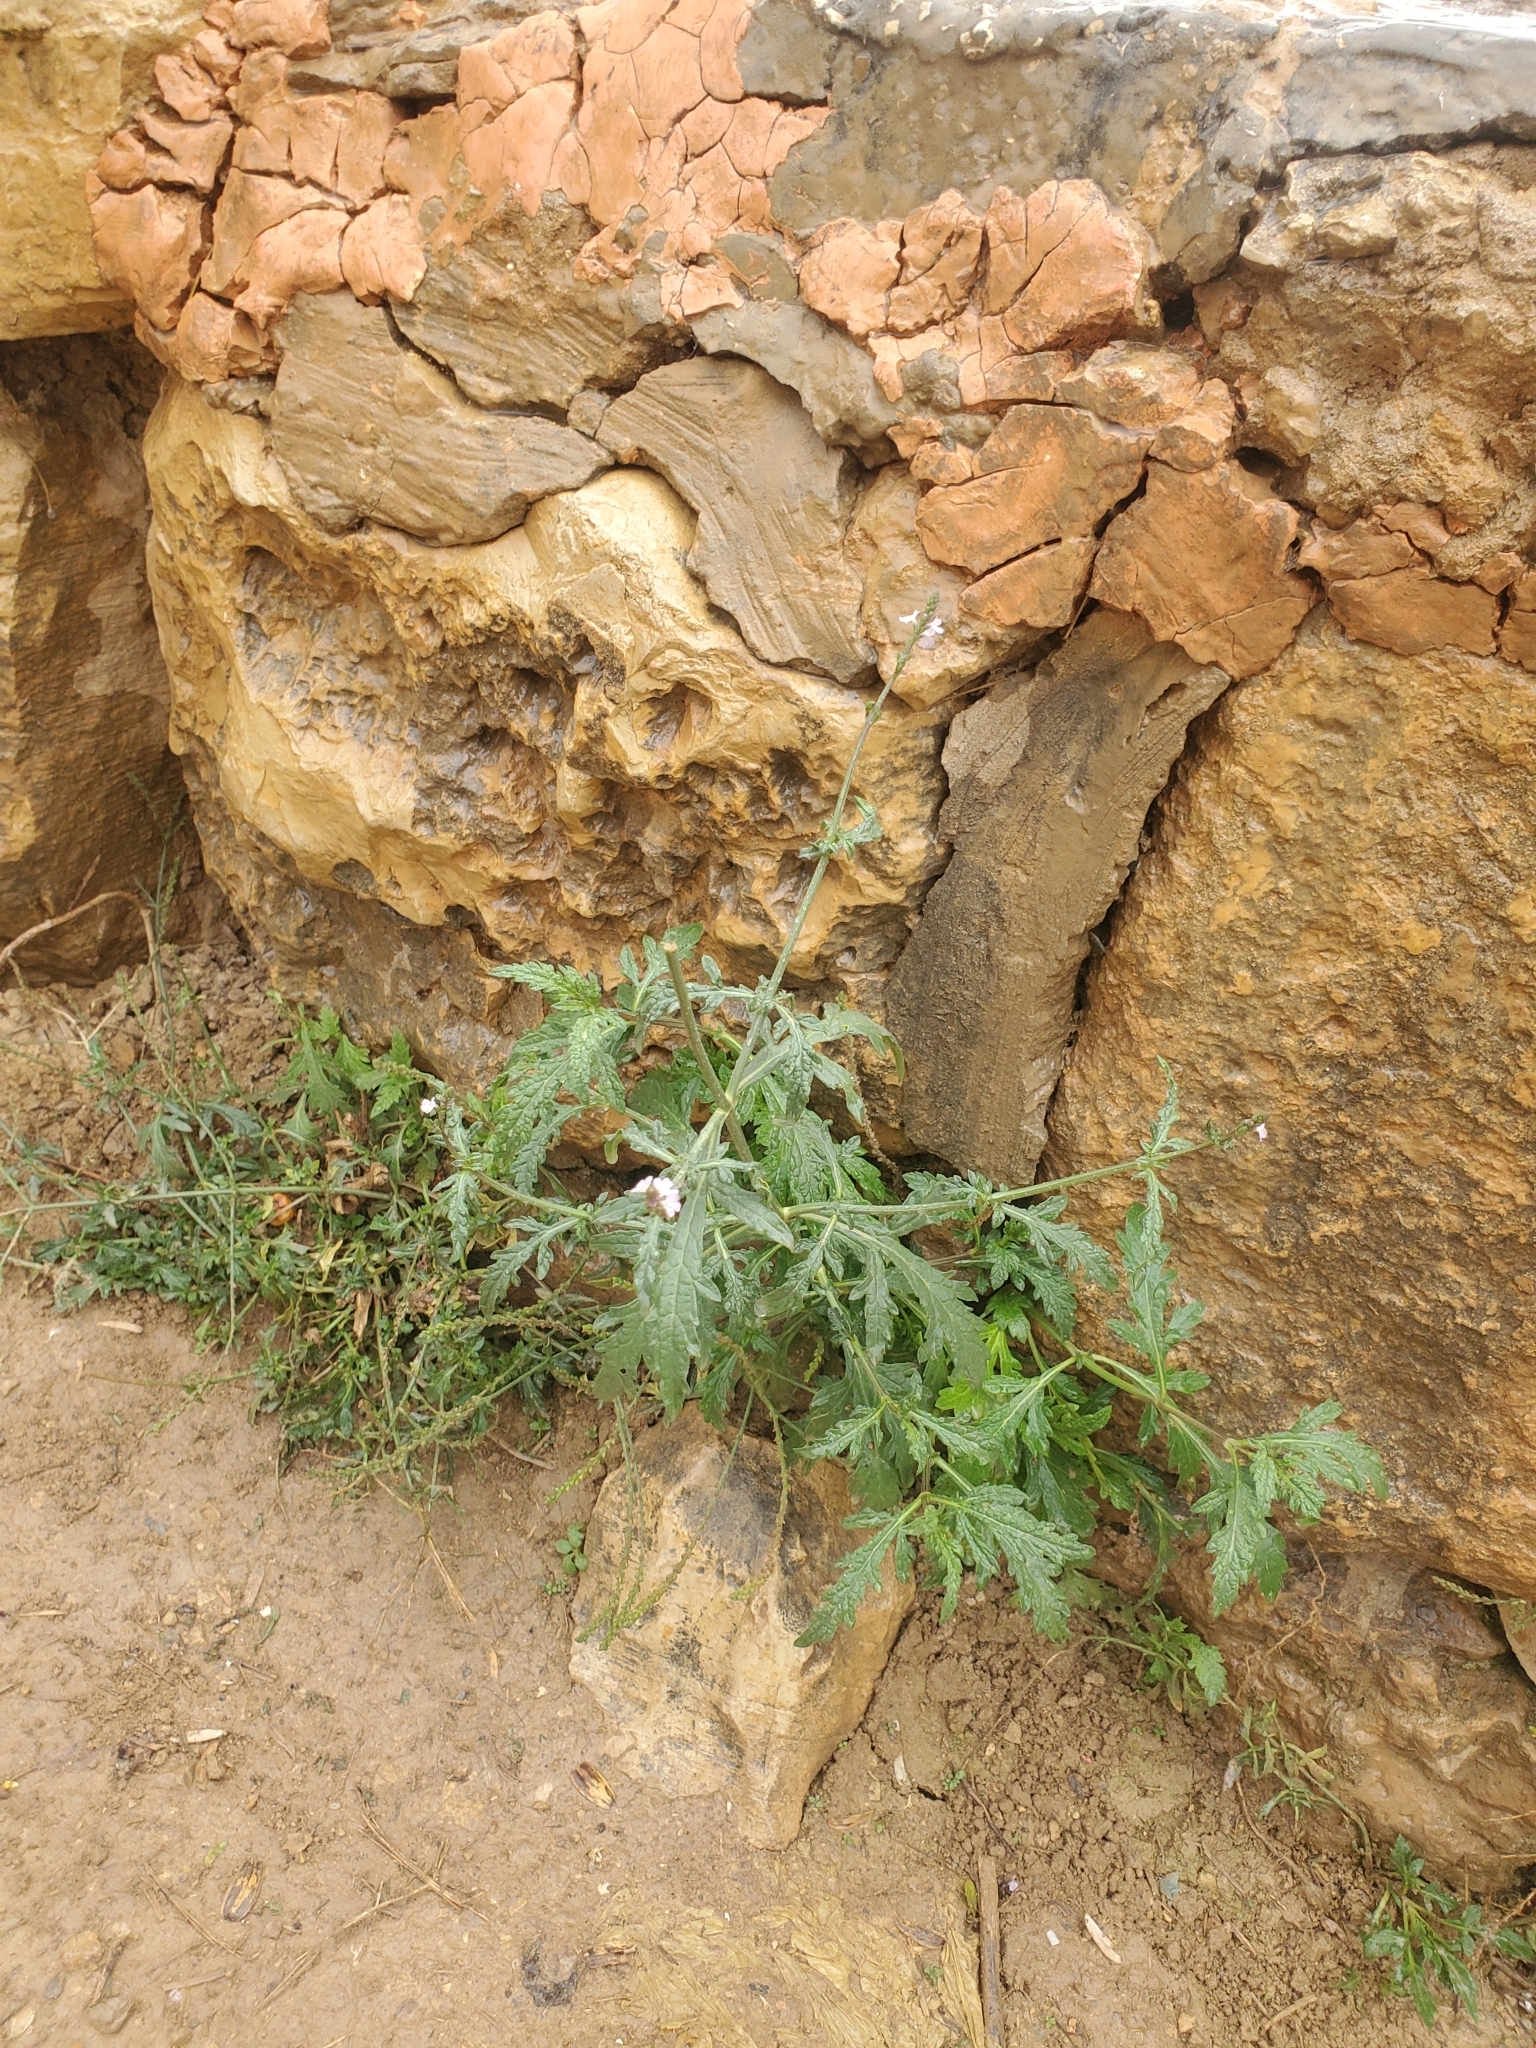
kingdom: Plantae
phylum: Tracheophyta
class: Magnoliopsida
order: Lamiales
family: Verbenaceae
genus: Verbena
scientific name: Verbena officinalis
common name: Vervain
